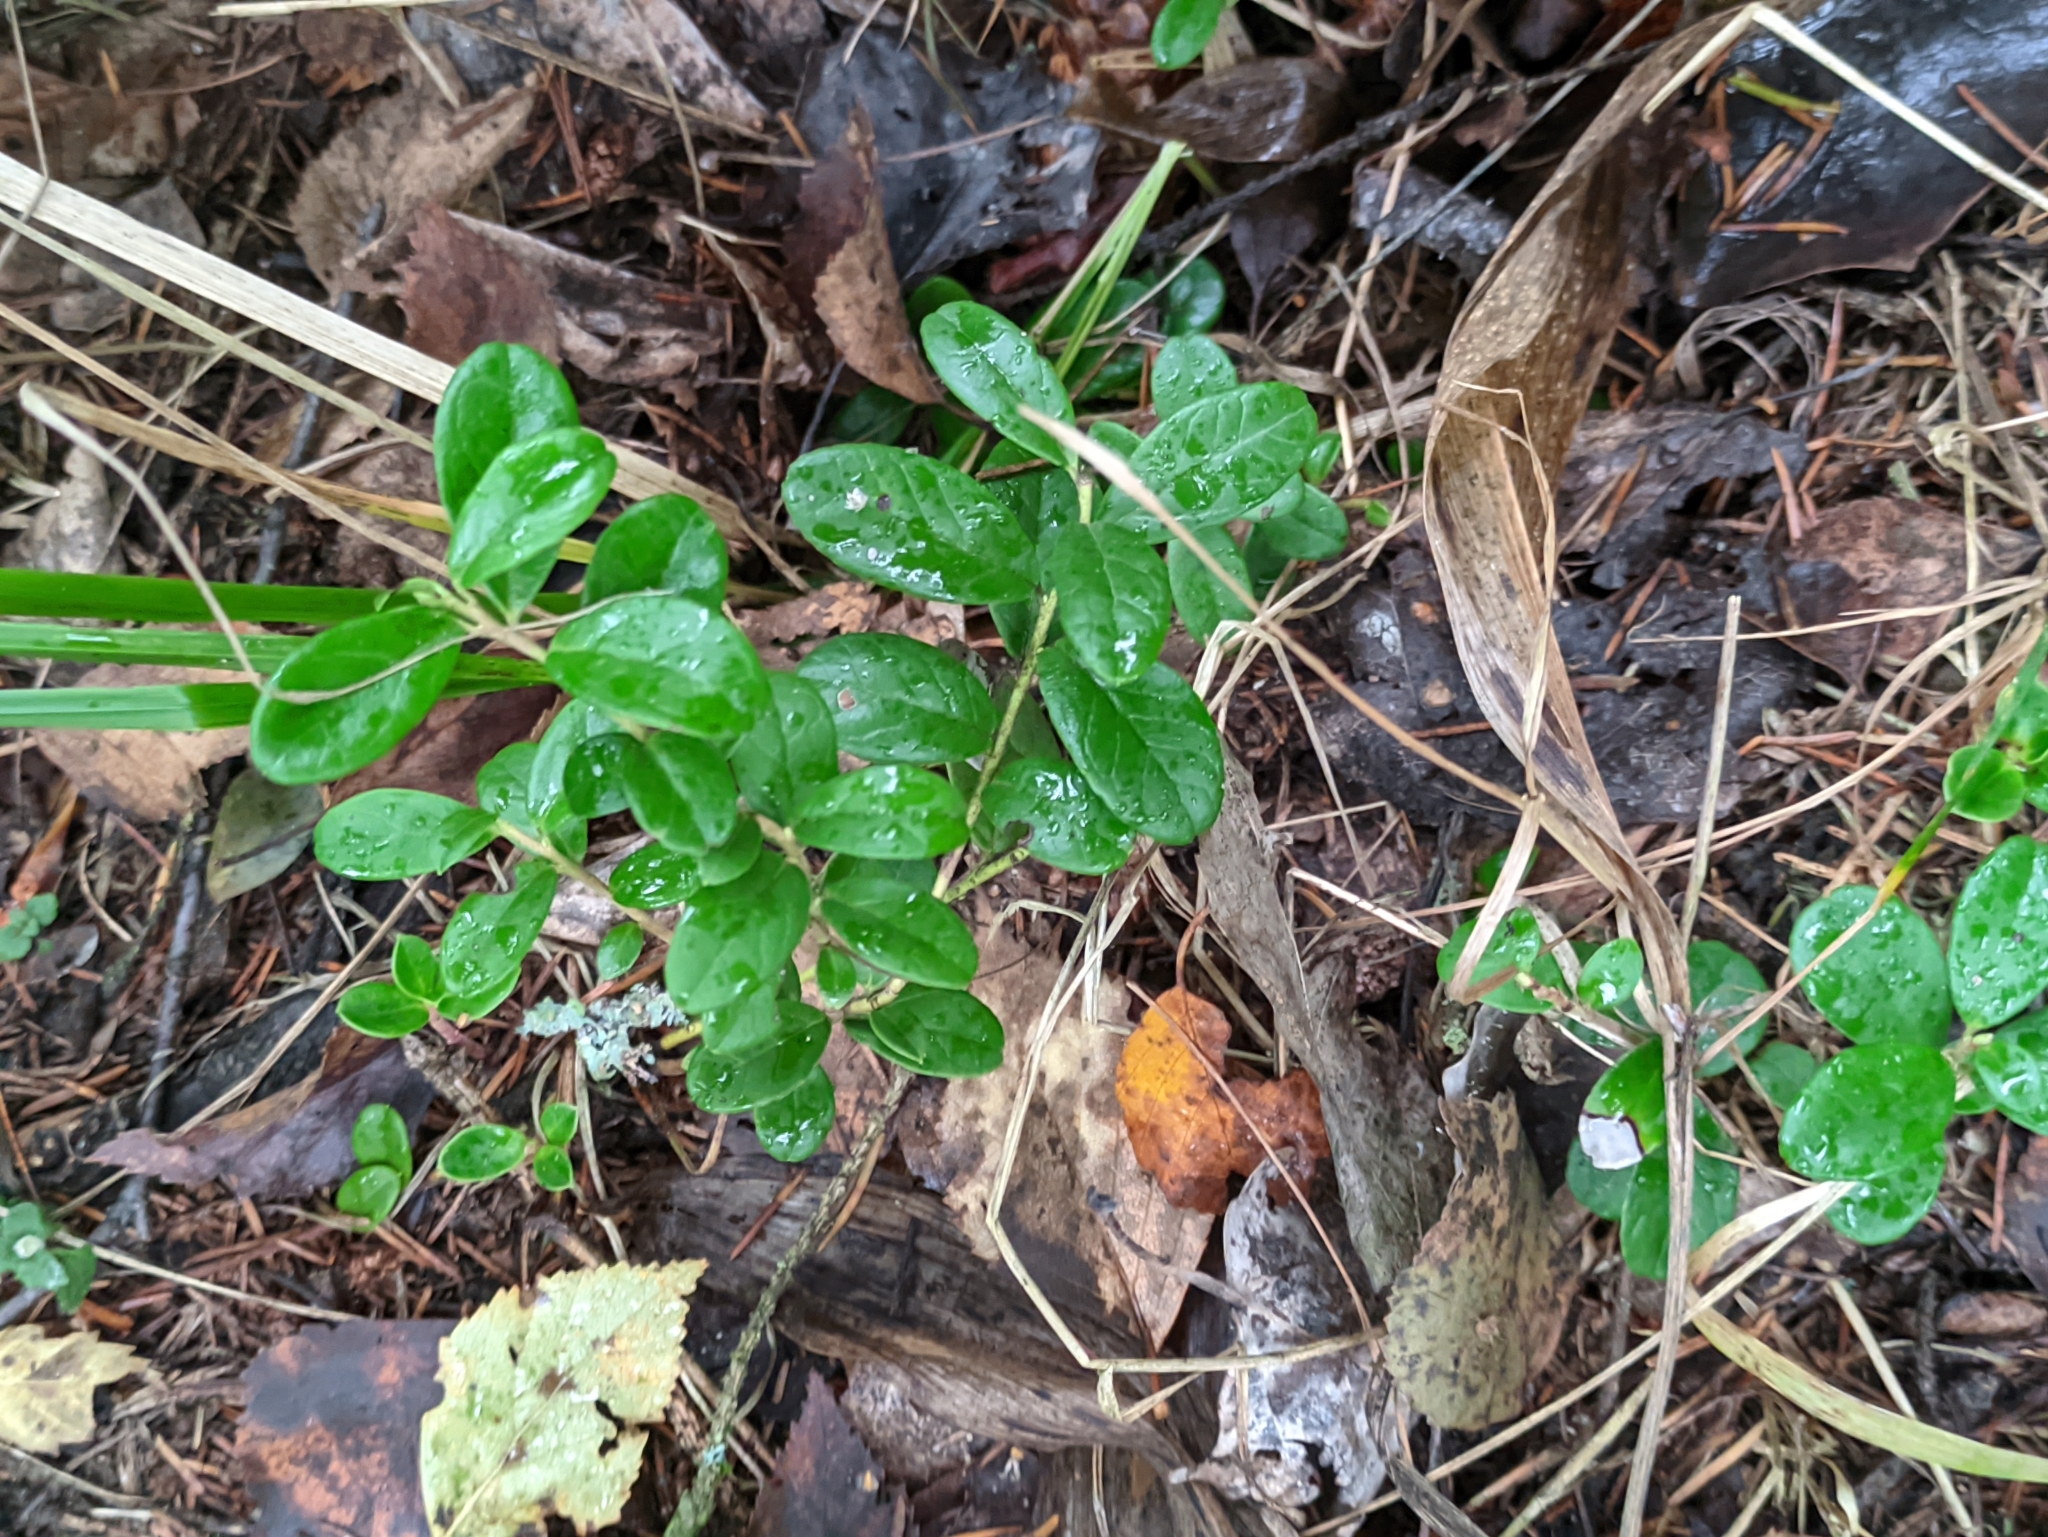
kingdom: Plantae
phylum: Tracheophyta
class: Magnoliopsida
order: Ericales
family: Ericaceae
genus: Vaccinium
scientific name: Vaccinium vitis-idaea
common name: Cowberry
